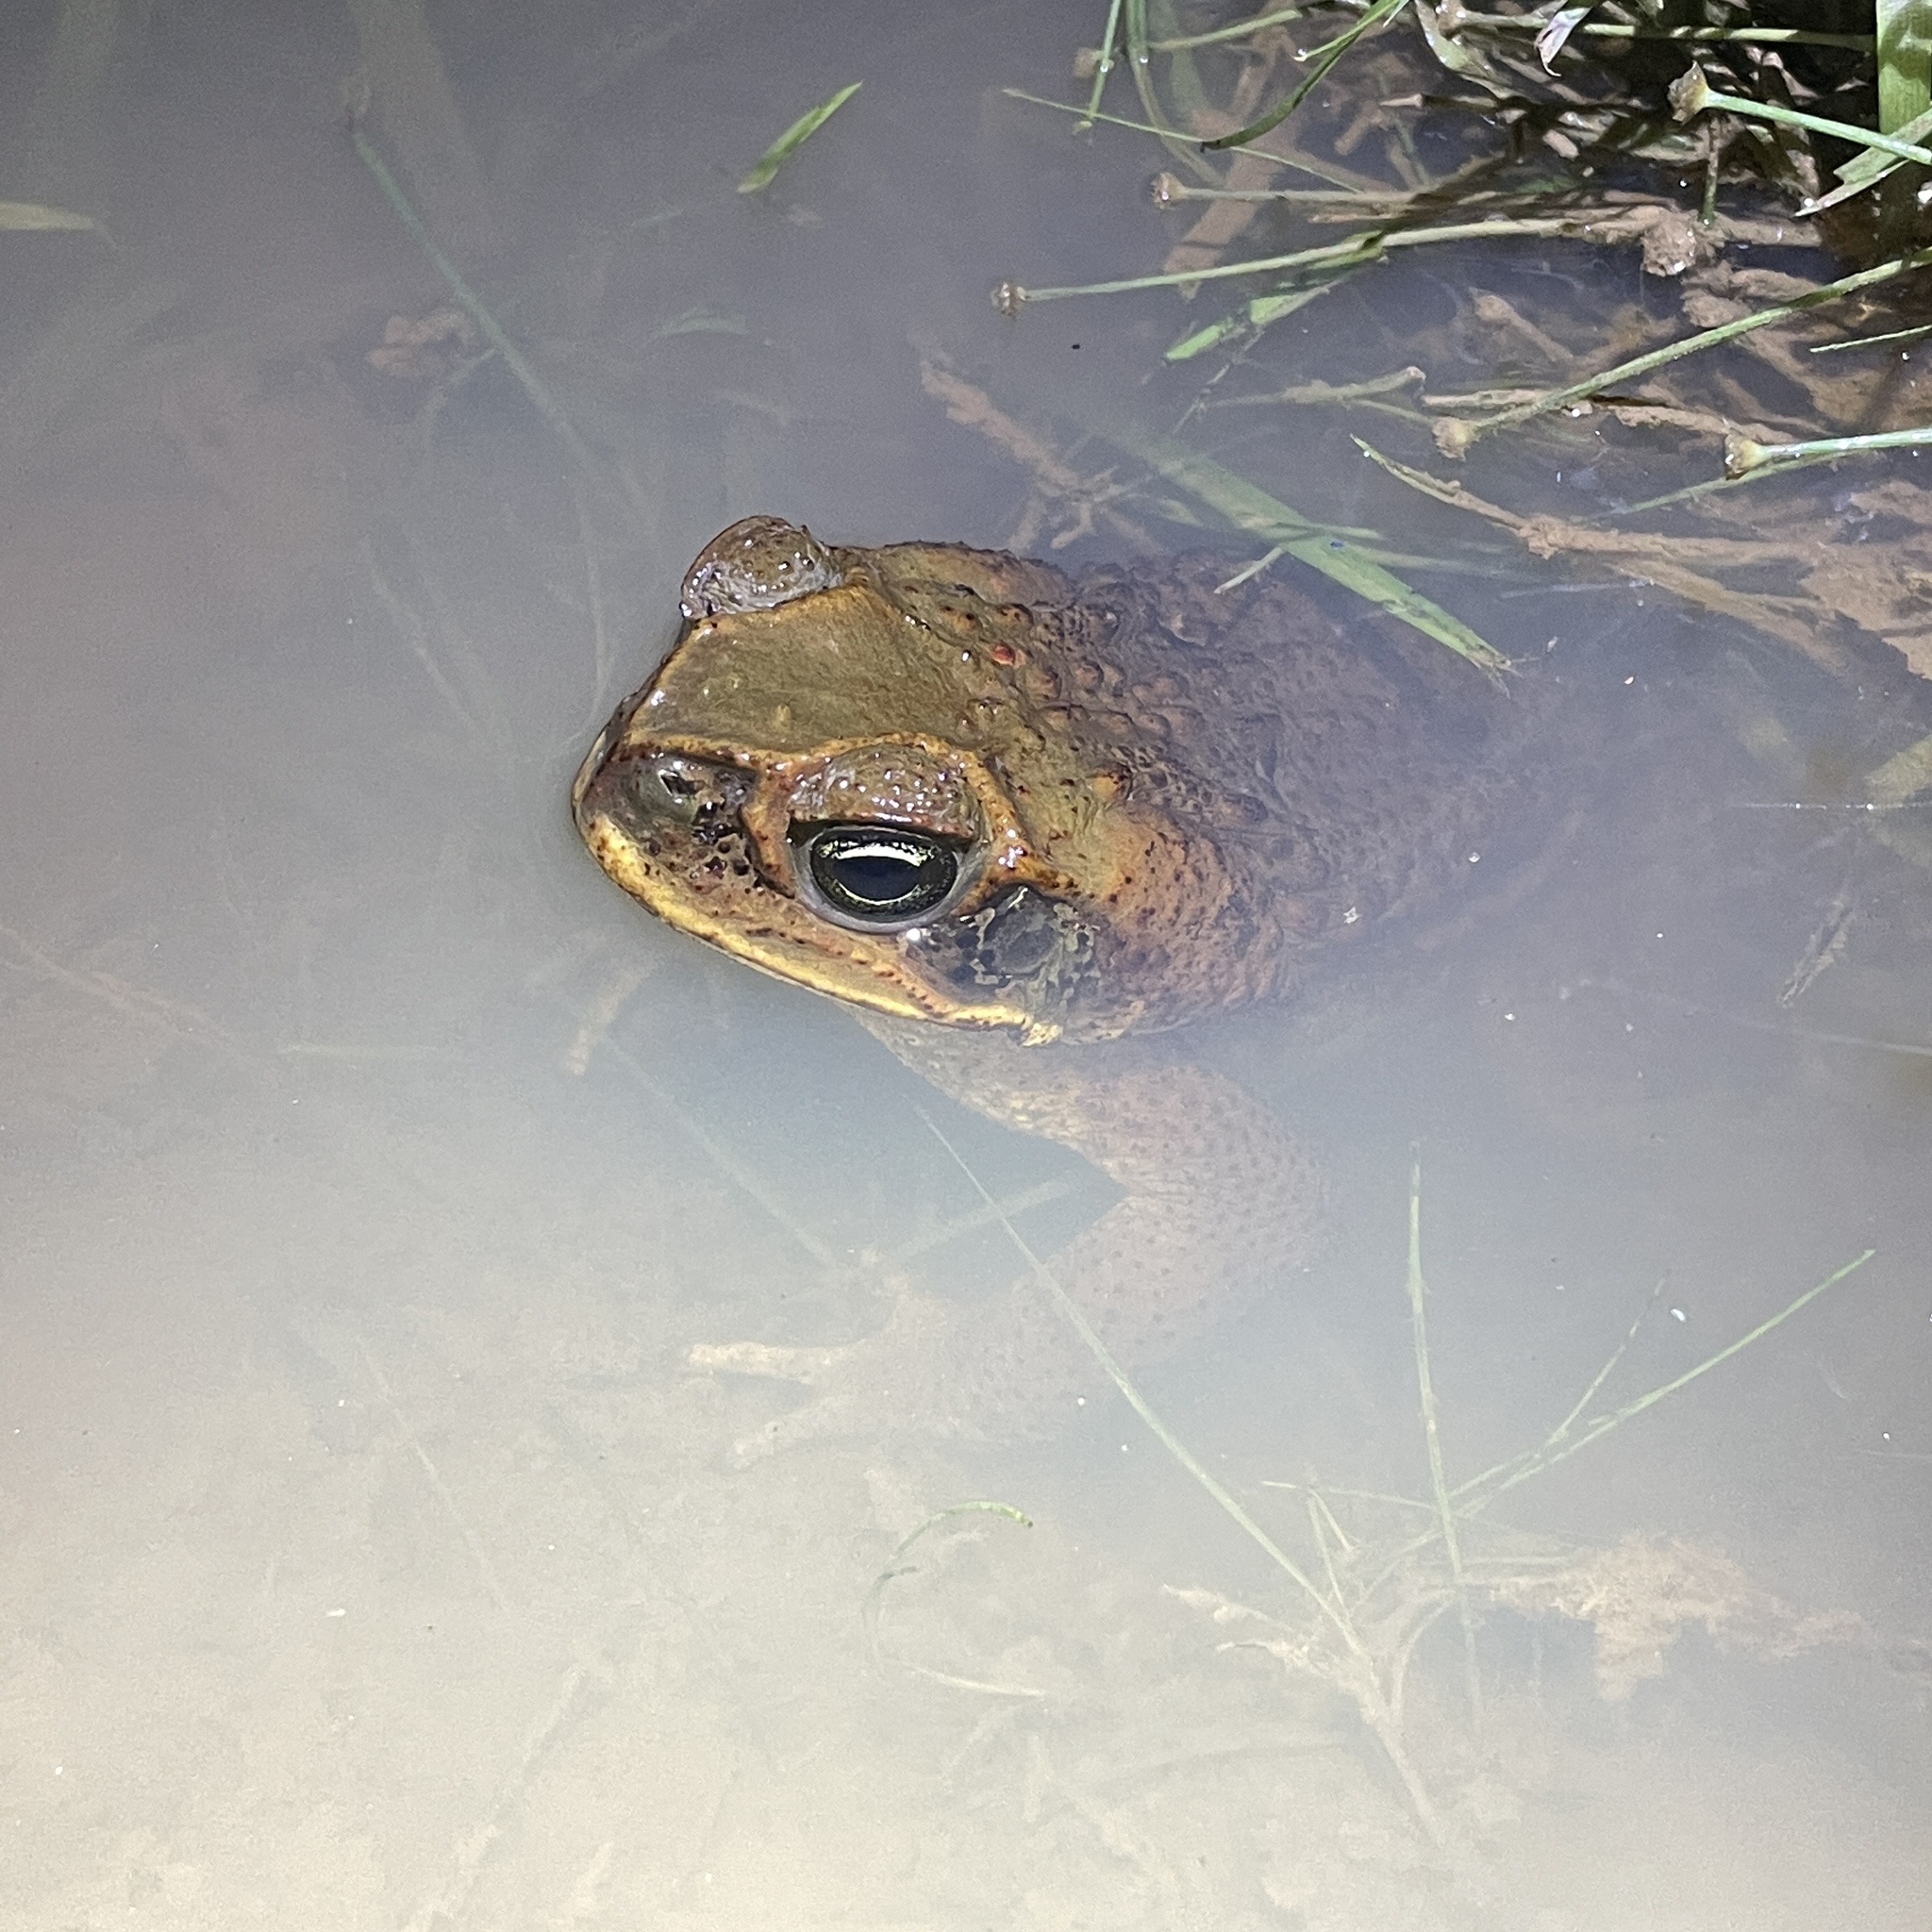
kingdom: Animalia
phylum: Chordata
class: Amphibia
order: Anura
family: Bufonidae
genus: Rhinella
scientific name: Rhinella marina
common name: Cane toad
